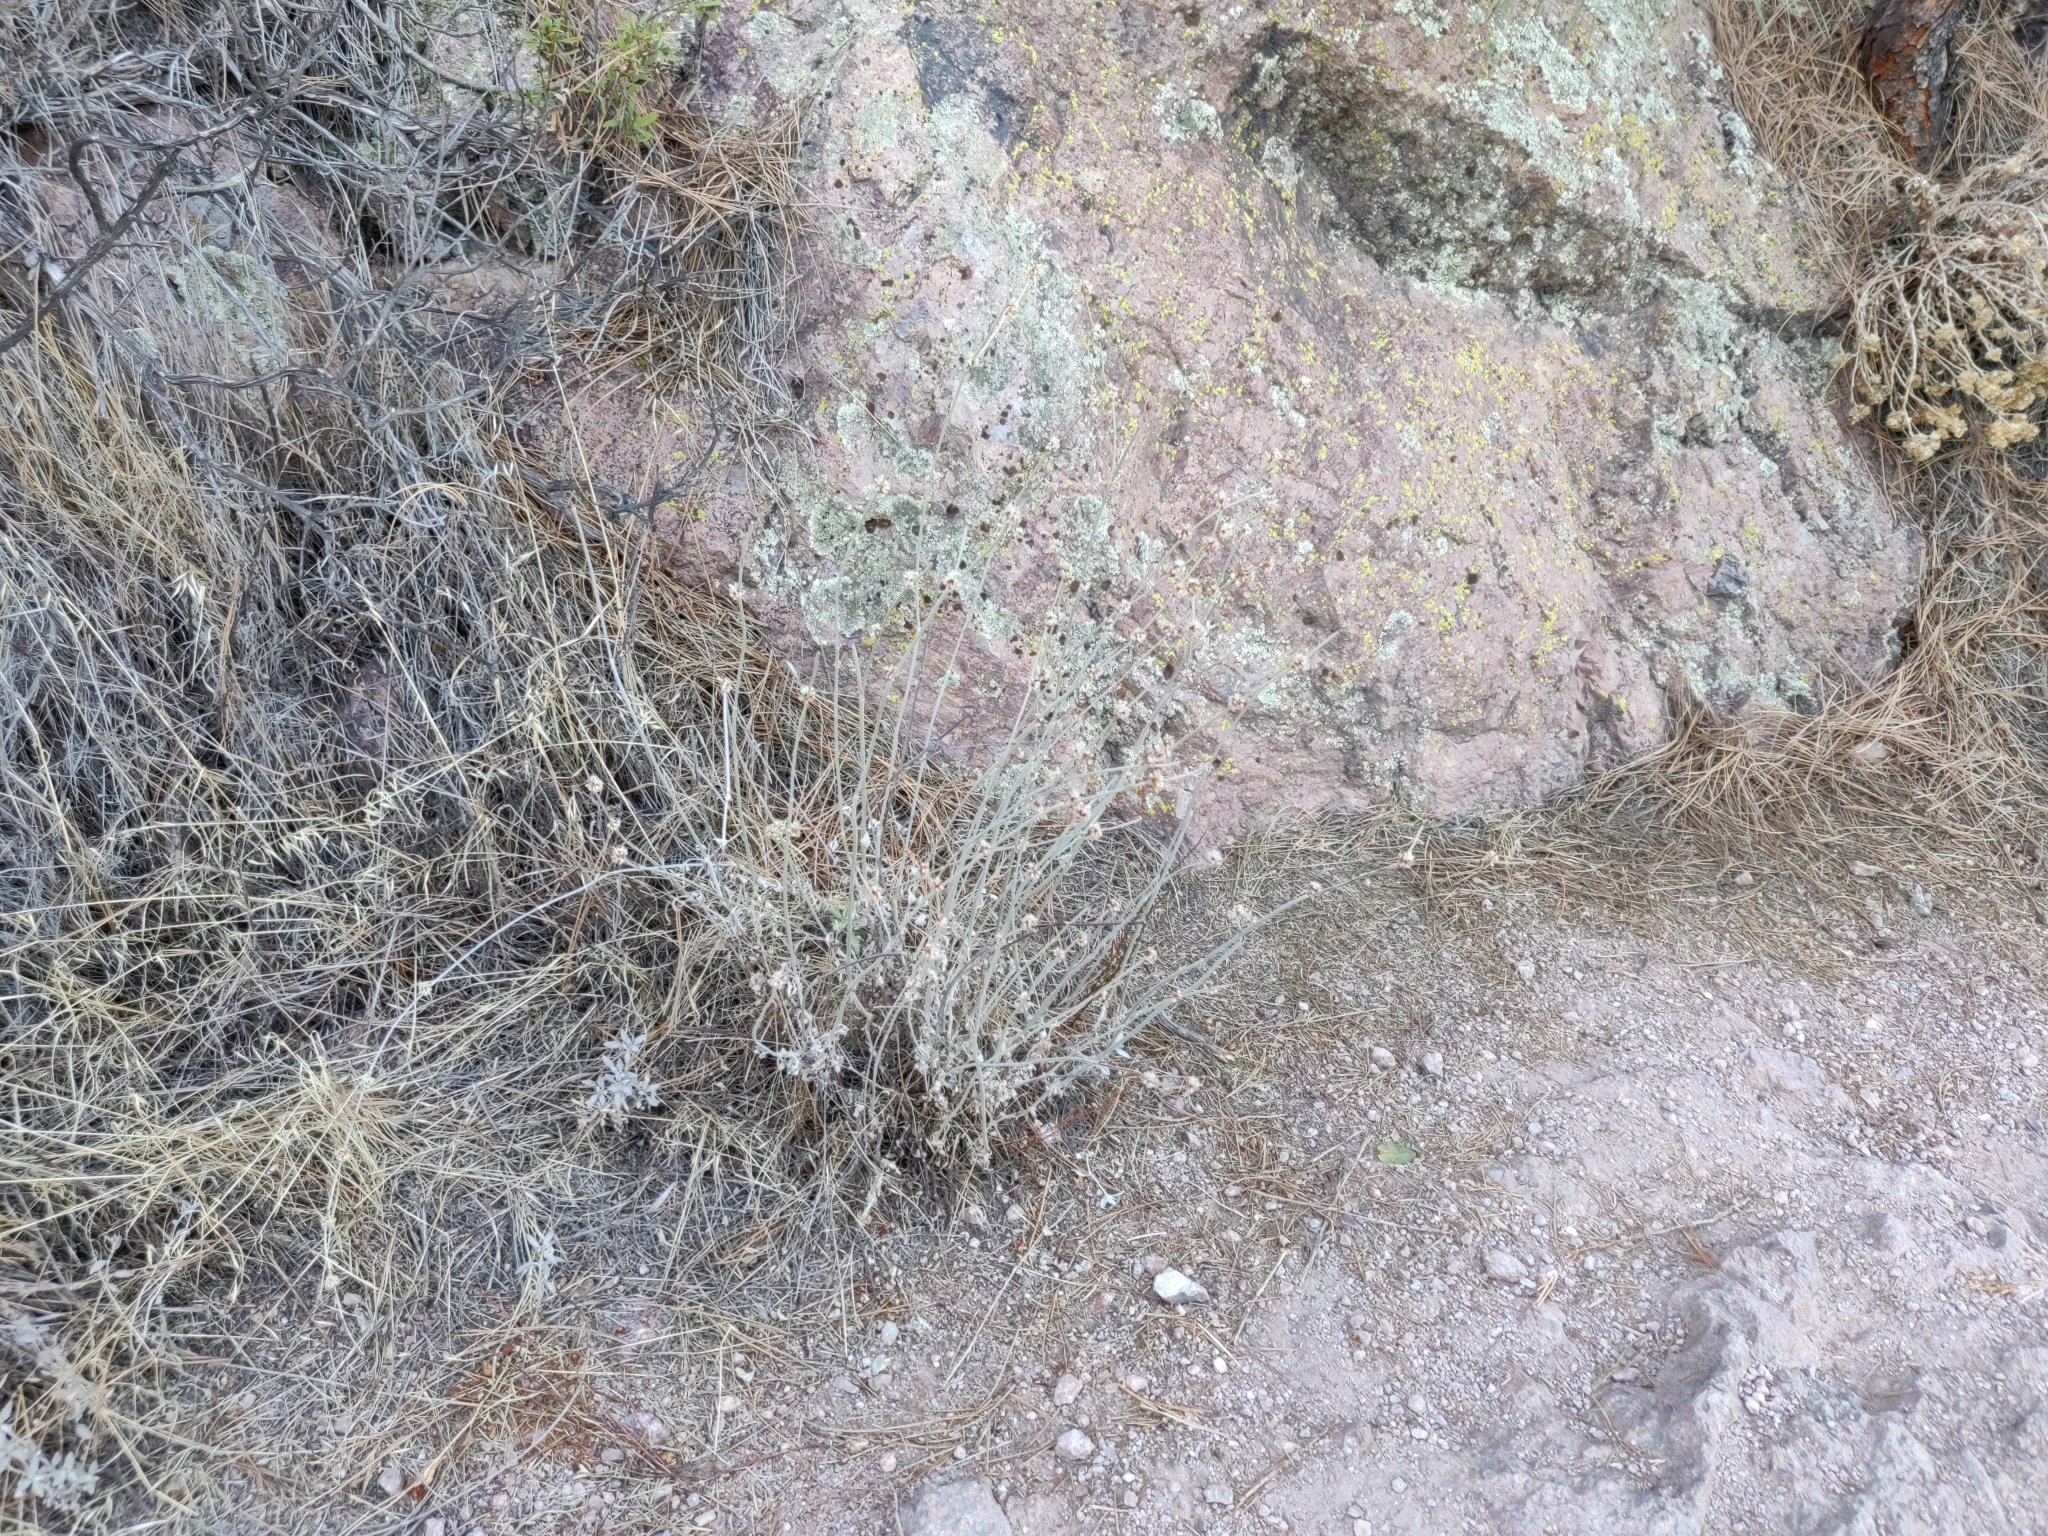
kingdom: Plantae
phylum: Tracheophyta
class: Magnoliopsida
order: Caryophyllales
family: Polygonaceae
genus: Eriogonum
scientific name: Eriogonum elongatum
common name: Long-stem wild buckwheat
